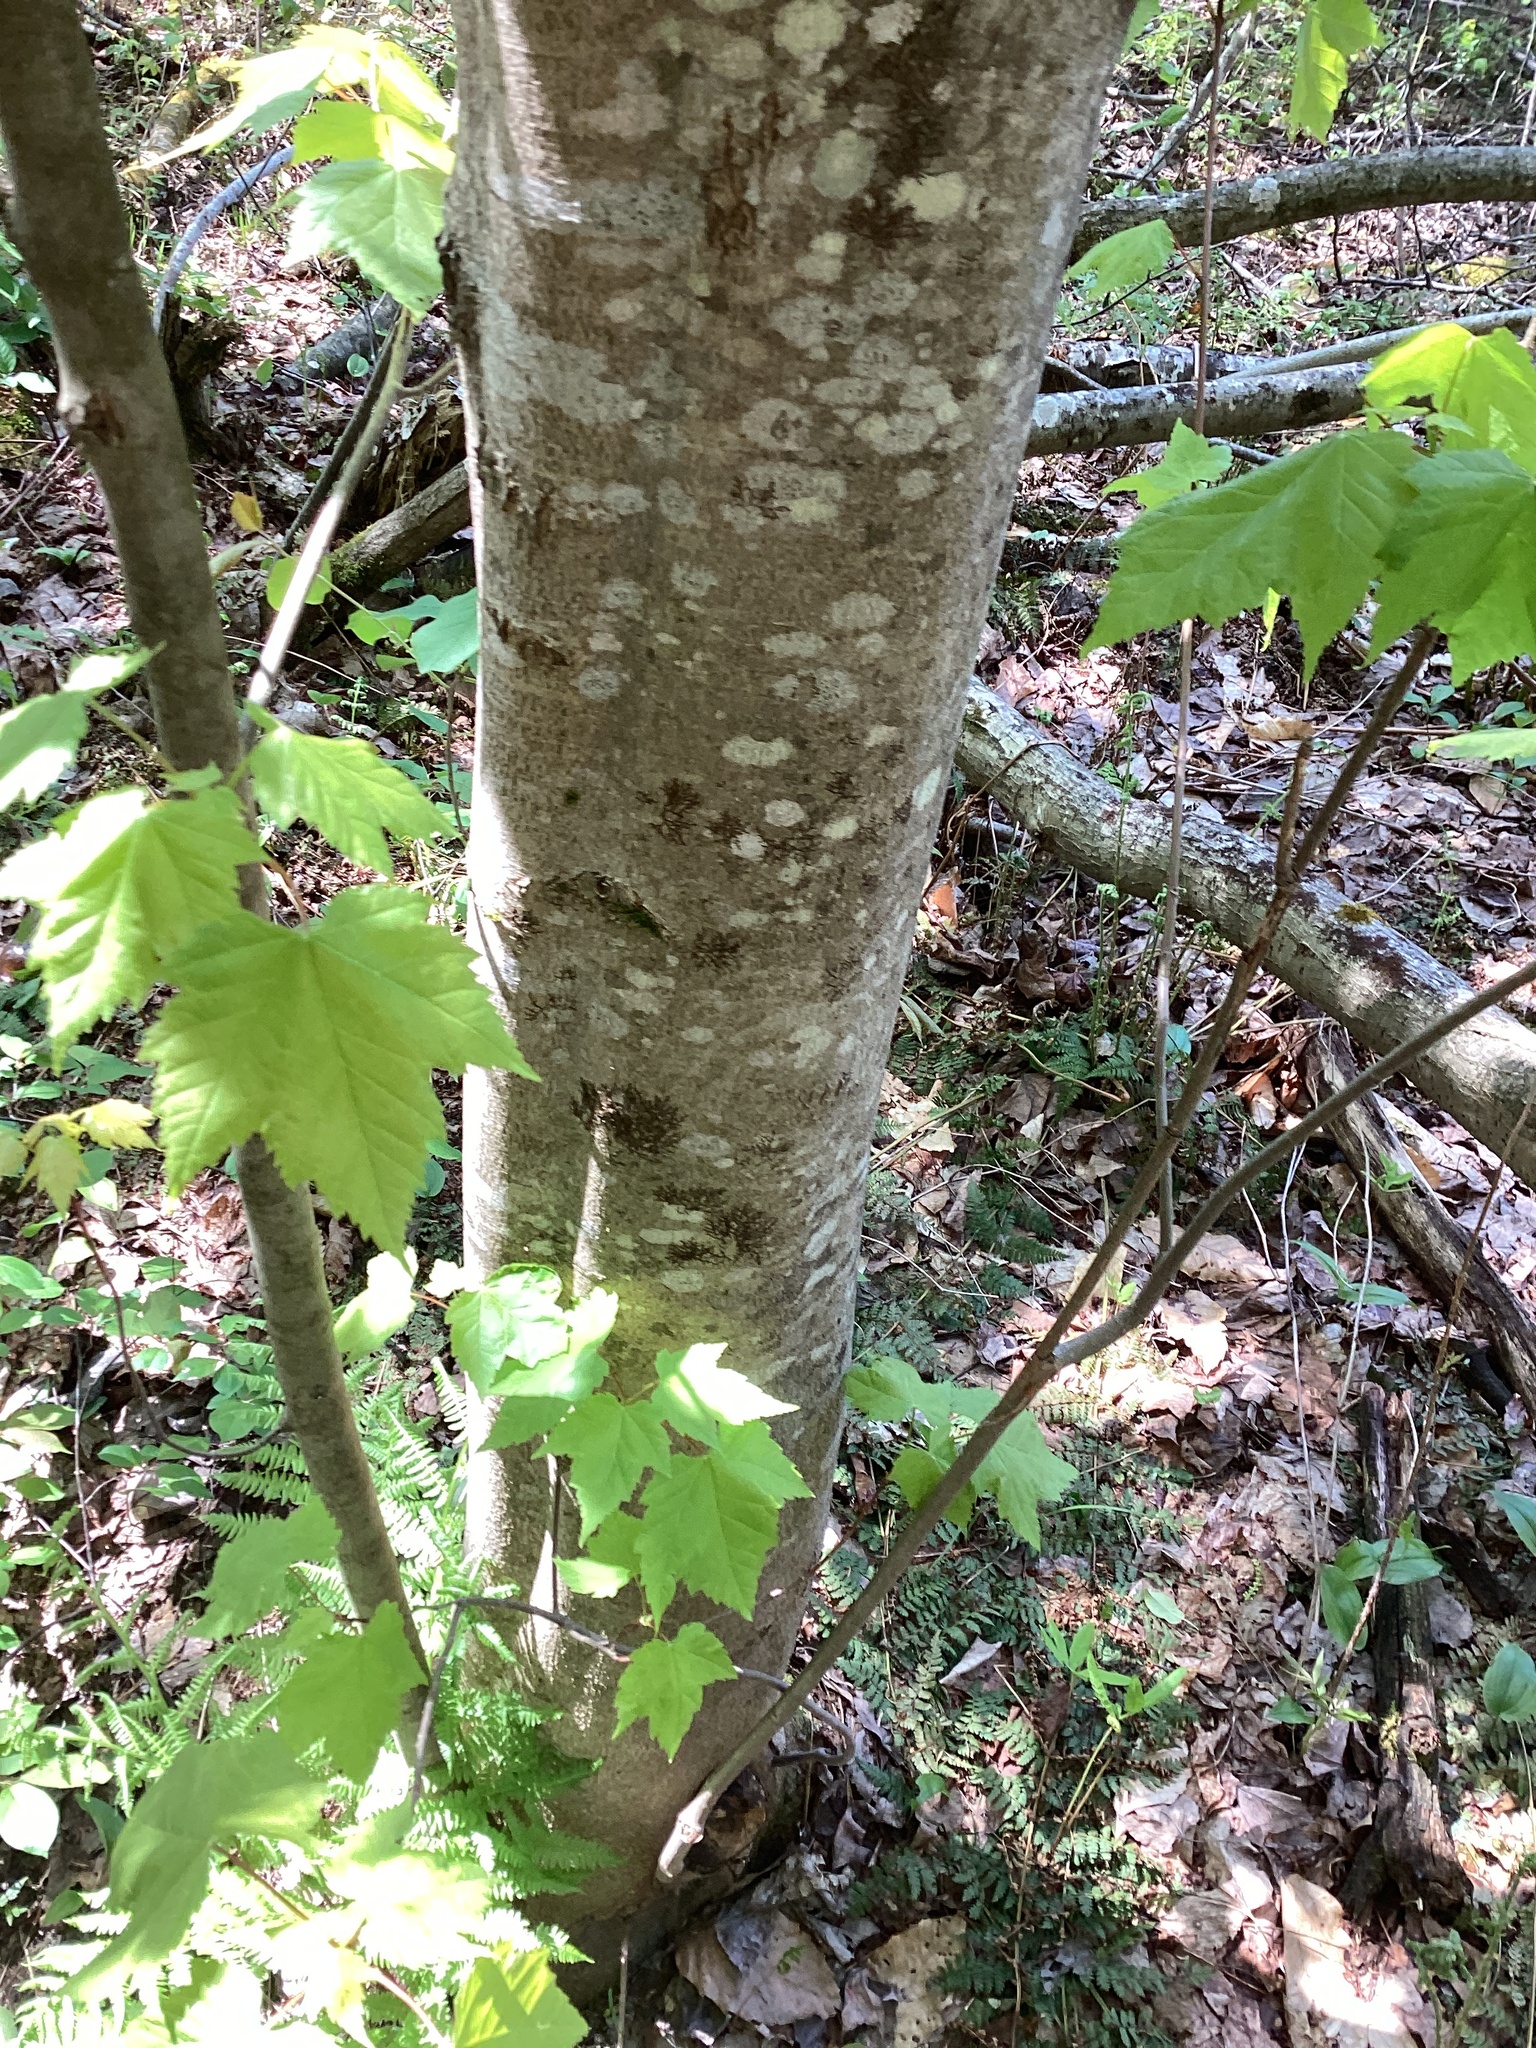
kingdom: Plantae
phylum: Tracheophyta
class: Magnoliopsida
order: Sapindales
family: Sapindaceae
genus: Acer
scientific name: Acer rubrum
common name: Red maple
